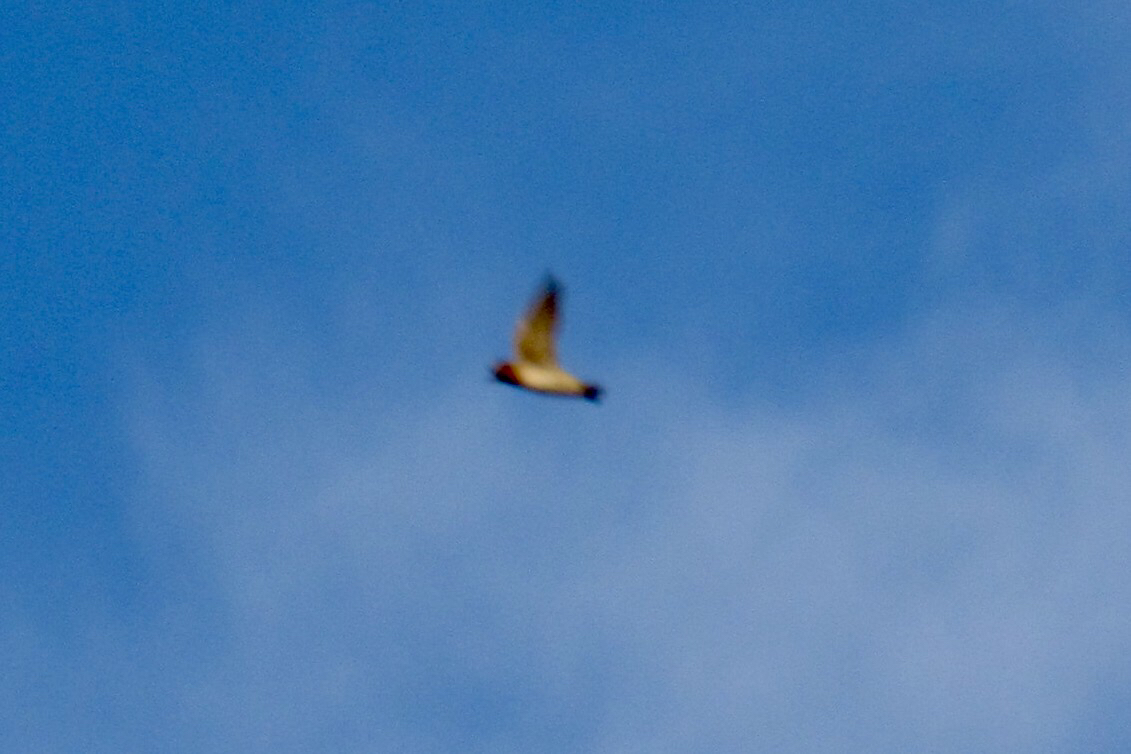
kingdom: Animalia
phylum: Chordata
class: Aves
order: Passeriformes
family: Hirundinidae
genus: Petrochelidon
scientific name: Petrochelidon pyrrhonota
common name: American cliff swallow
